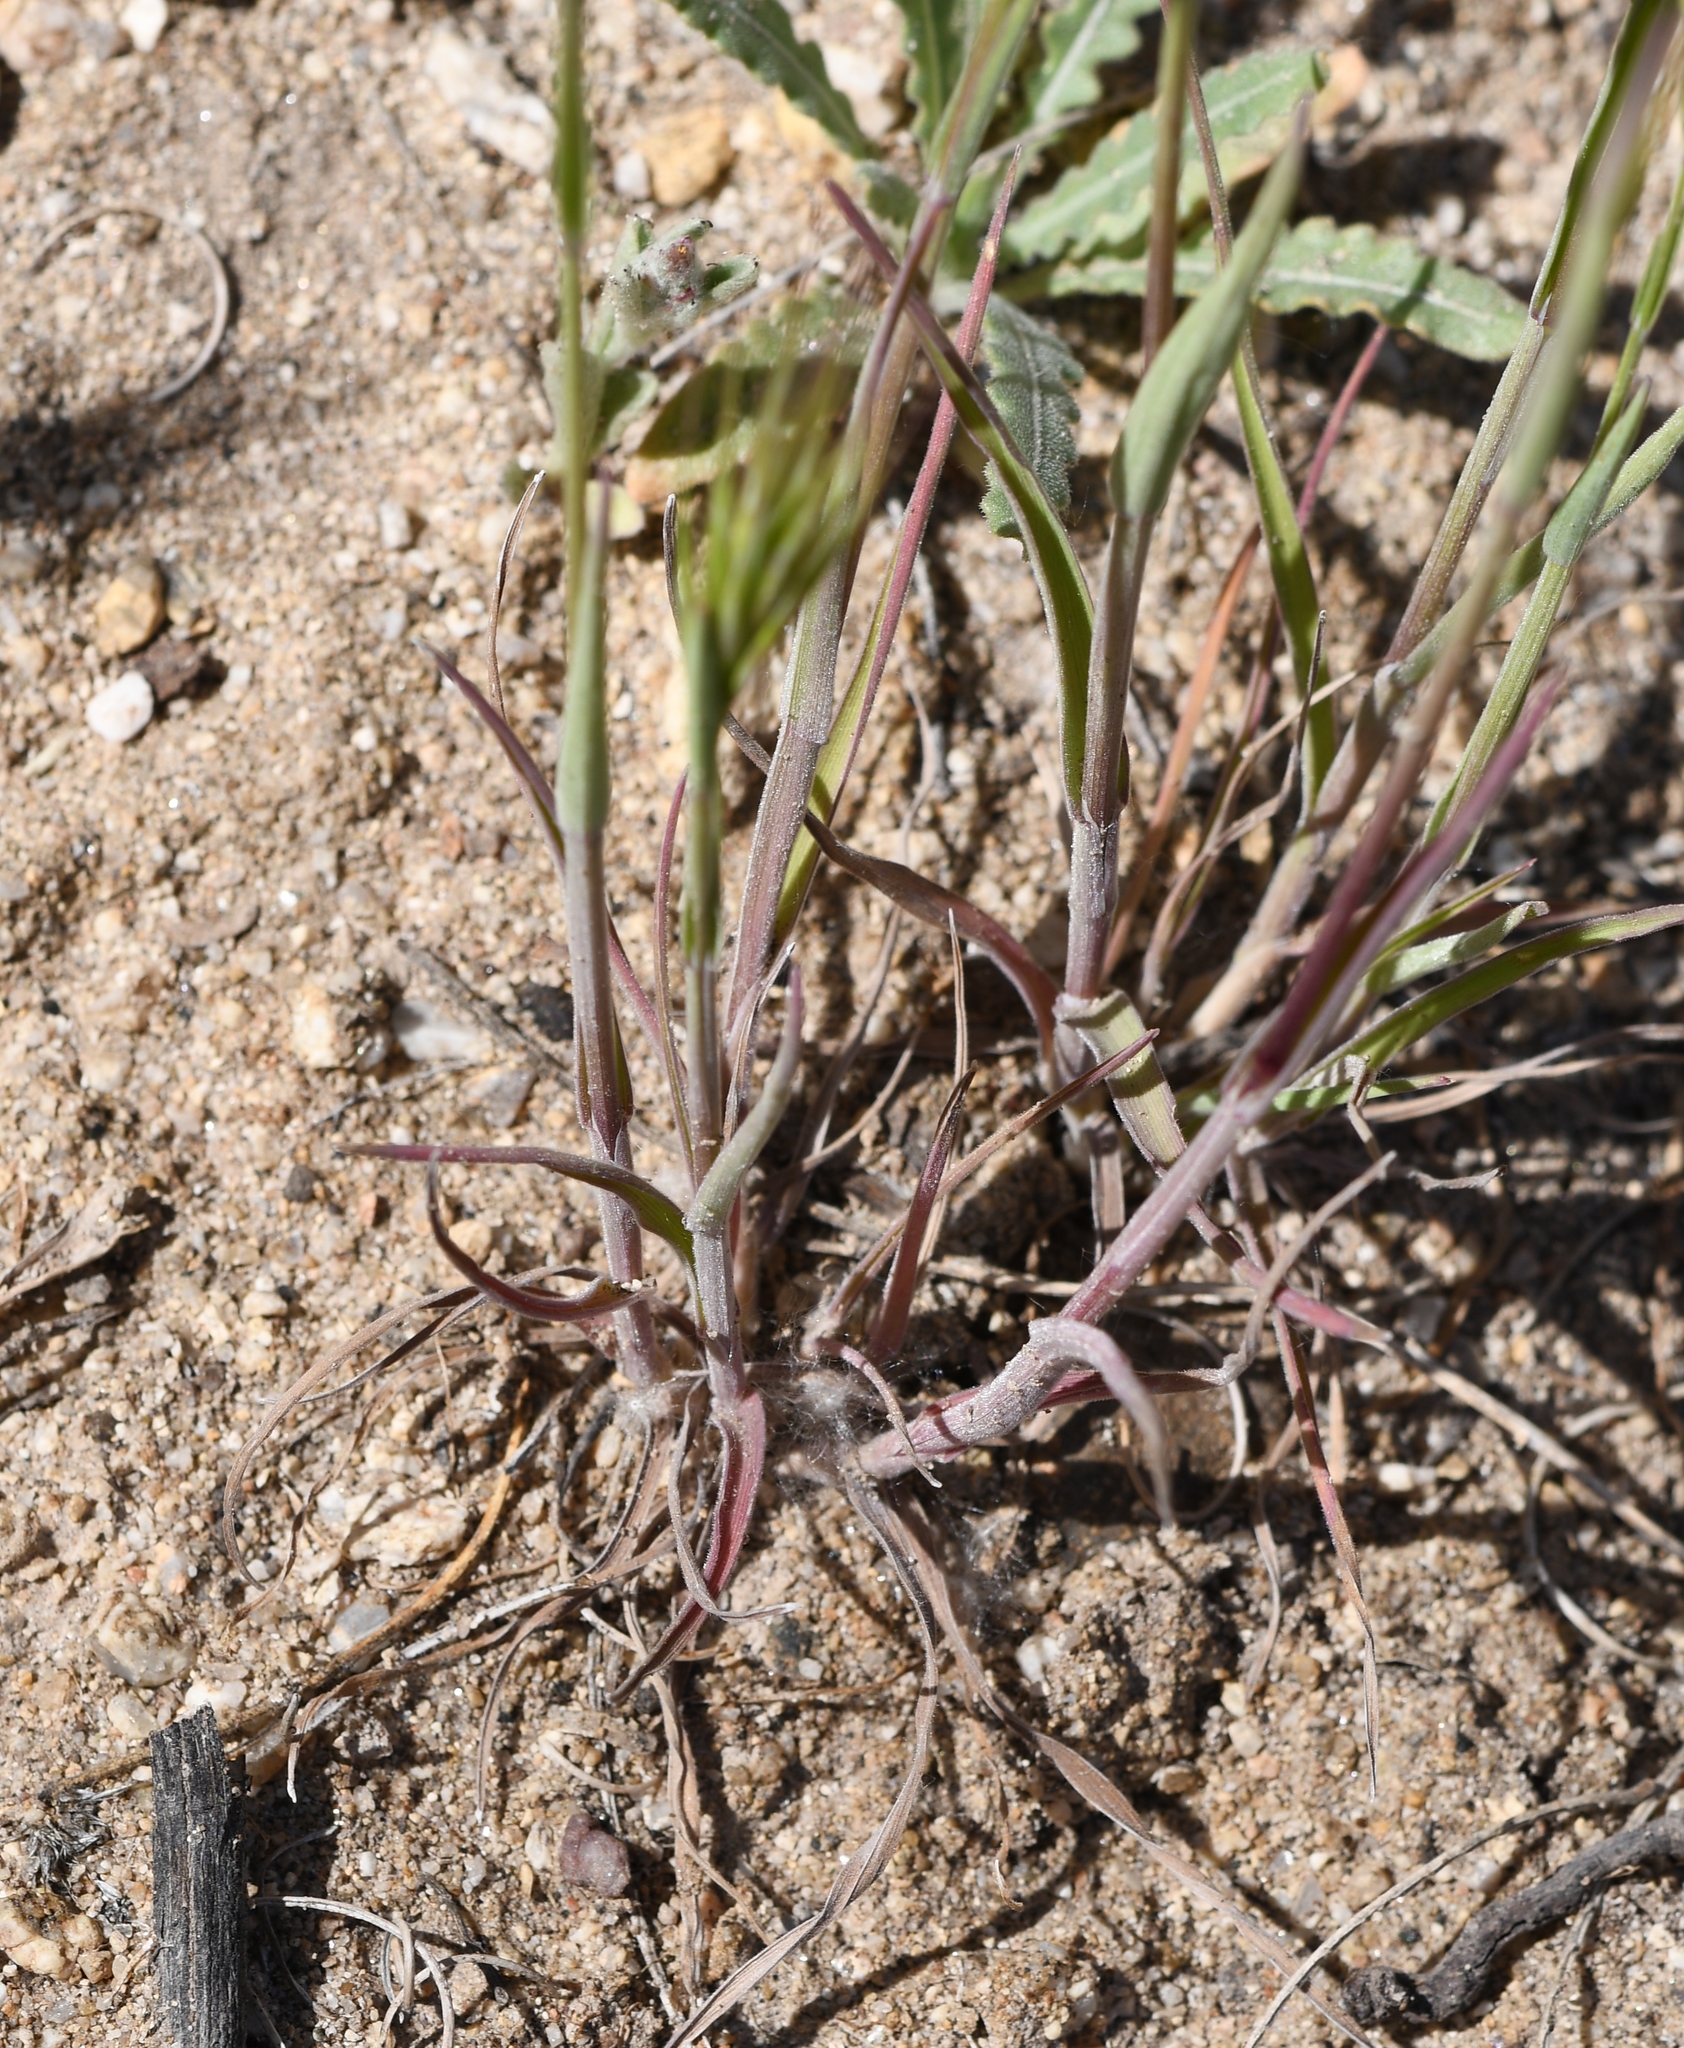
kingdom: Plantae
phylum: Tracheophyta
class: Liliopsida
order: Poales
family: Poaceae
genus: Bromus
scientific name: Bromus rubens
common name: Red brome
